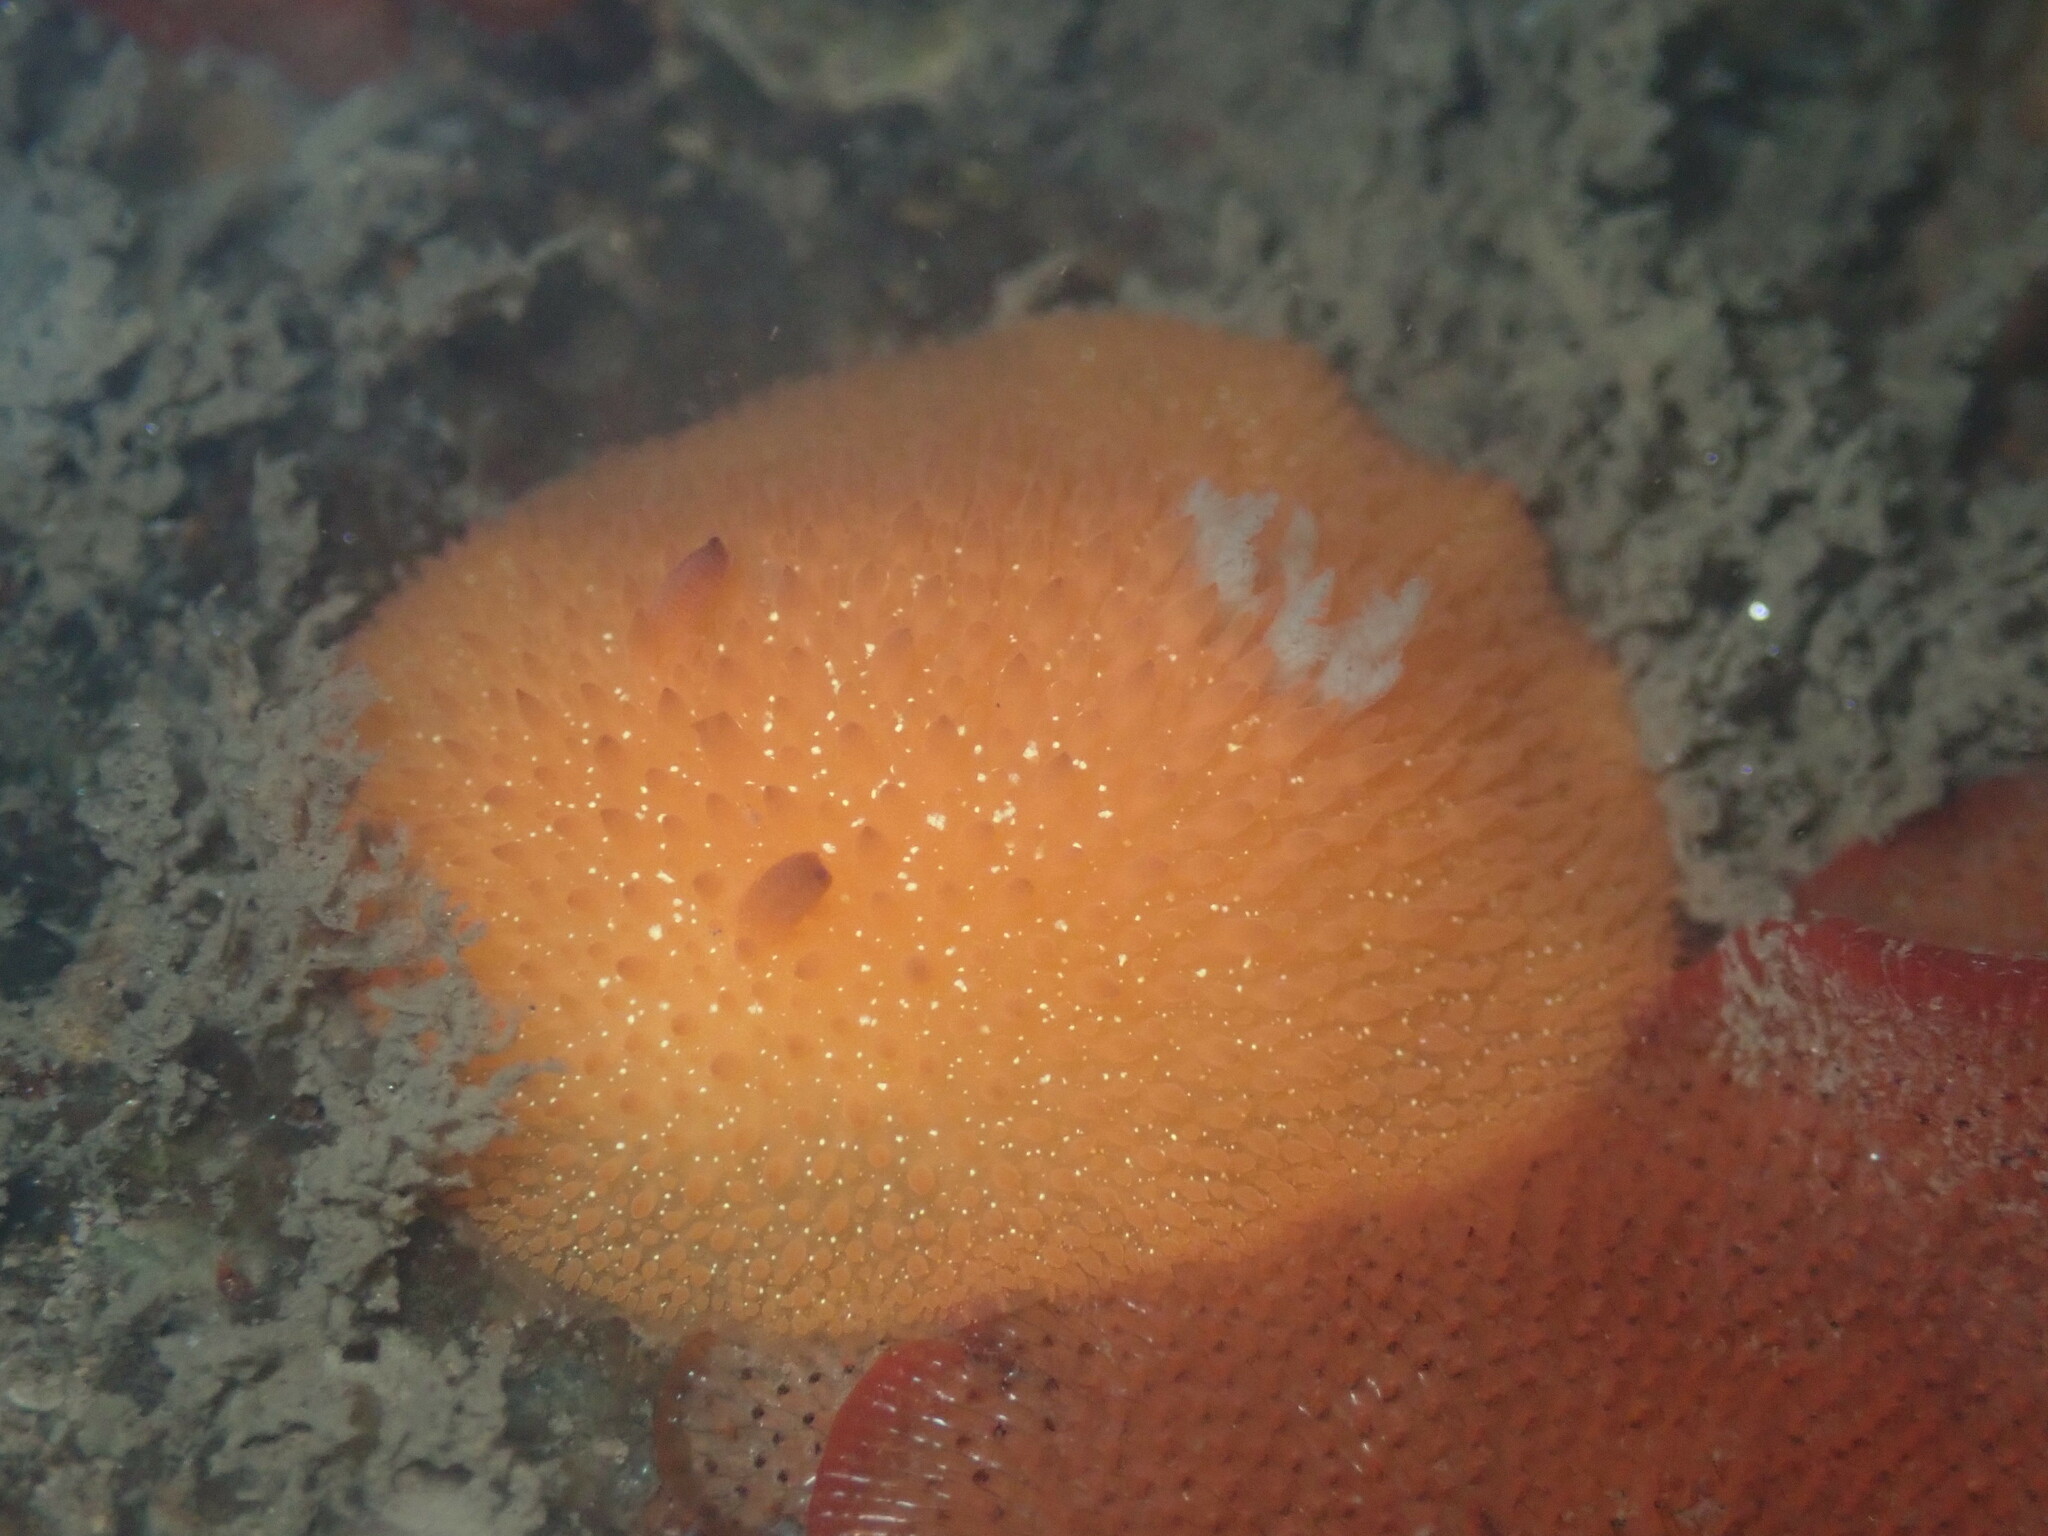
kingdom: Animalia
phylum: Mollusca
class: Gastropoda
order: Nudibranchia
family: Onchidorididae
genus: Acanthodoris
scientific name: Acanthodoris lutea
